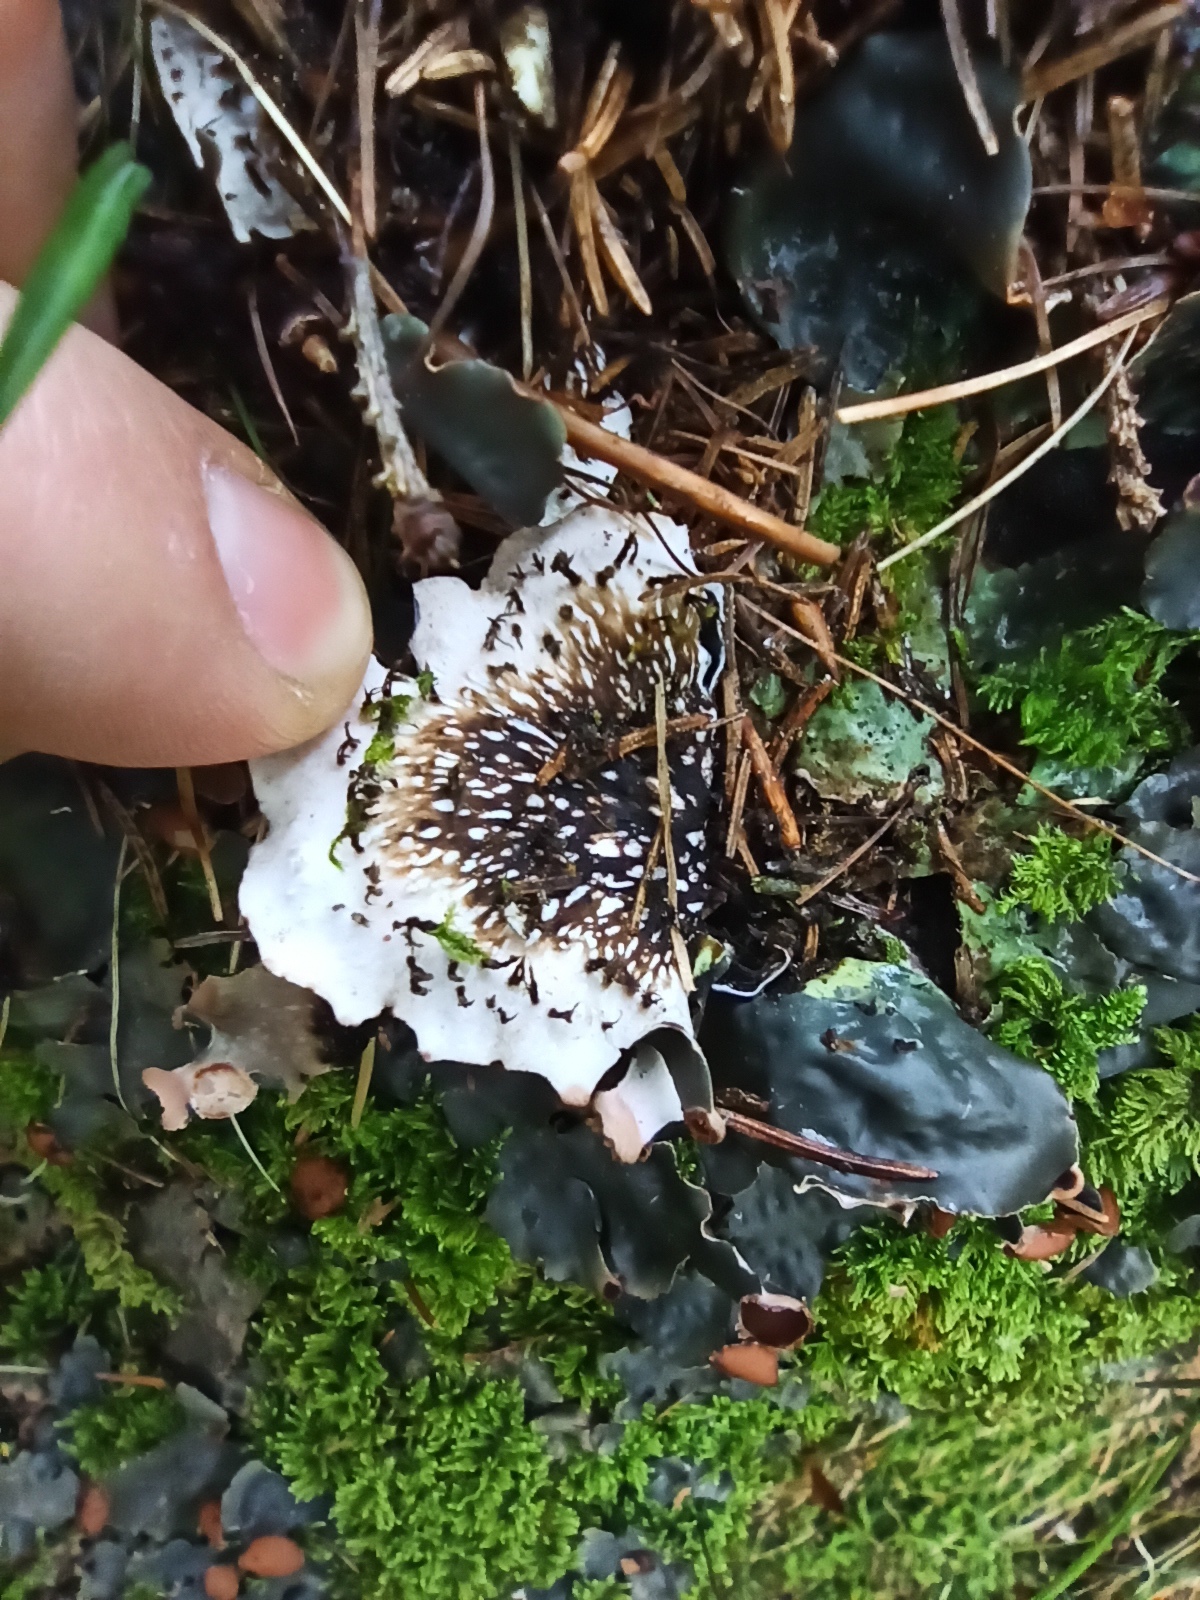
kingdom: Fungi
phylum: Ascomycota
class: Lecanoromycetes
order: Peltigerales
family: Peltigeraceae
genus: Peltigera
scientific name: Peltigera horizontalis
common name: Flat fruited pelt
